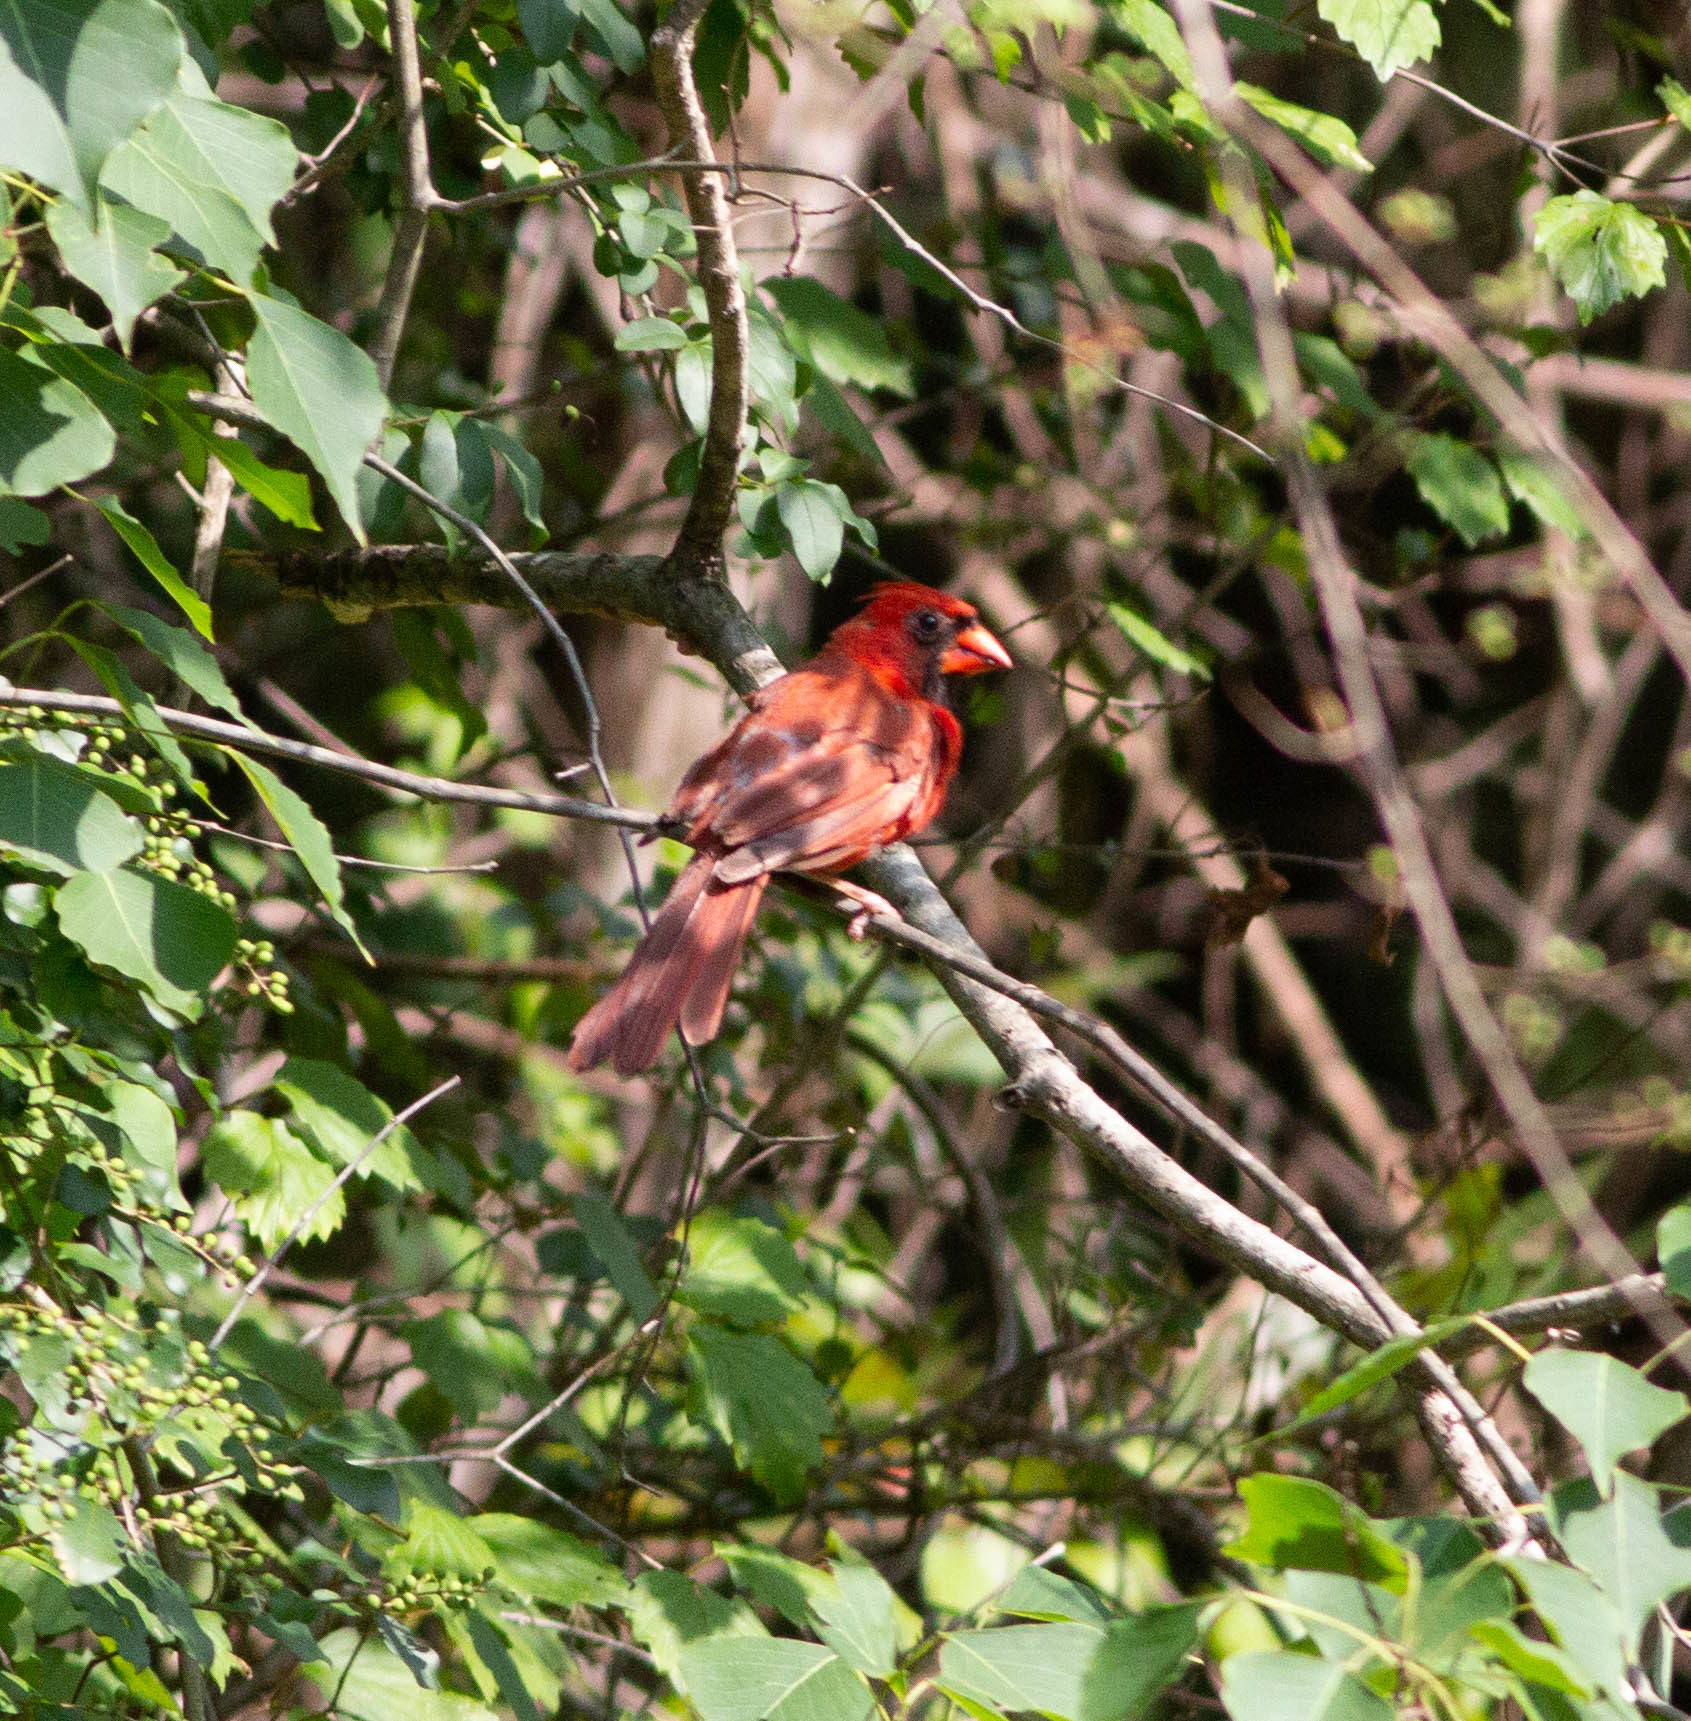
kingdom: Animalia
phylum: Chordata
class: Aves
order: Passeriformes
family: Cardinalidae
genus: Cardinalis
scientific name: Cardinalis cardinalis
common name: Northern cardinal
